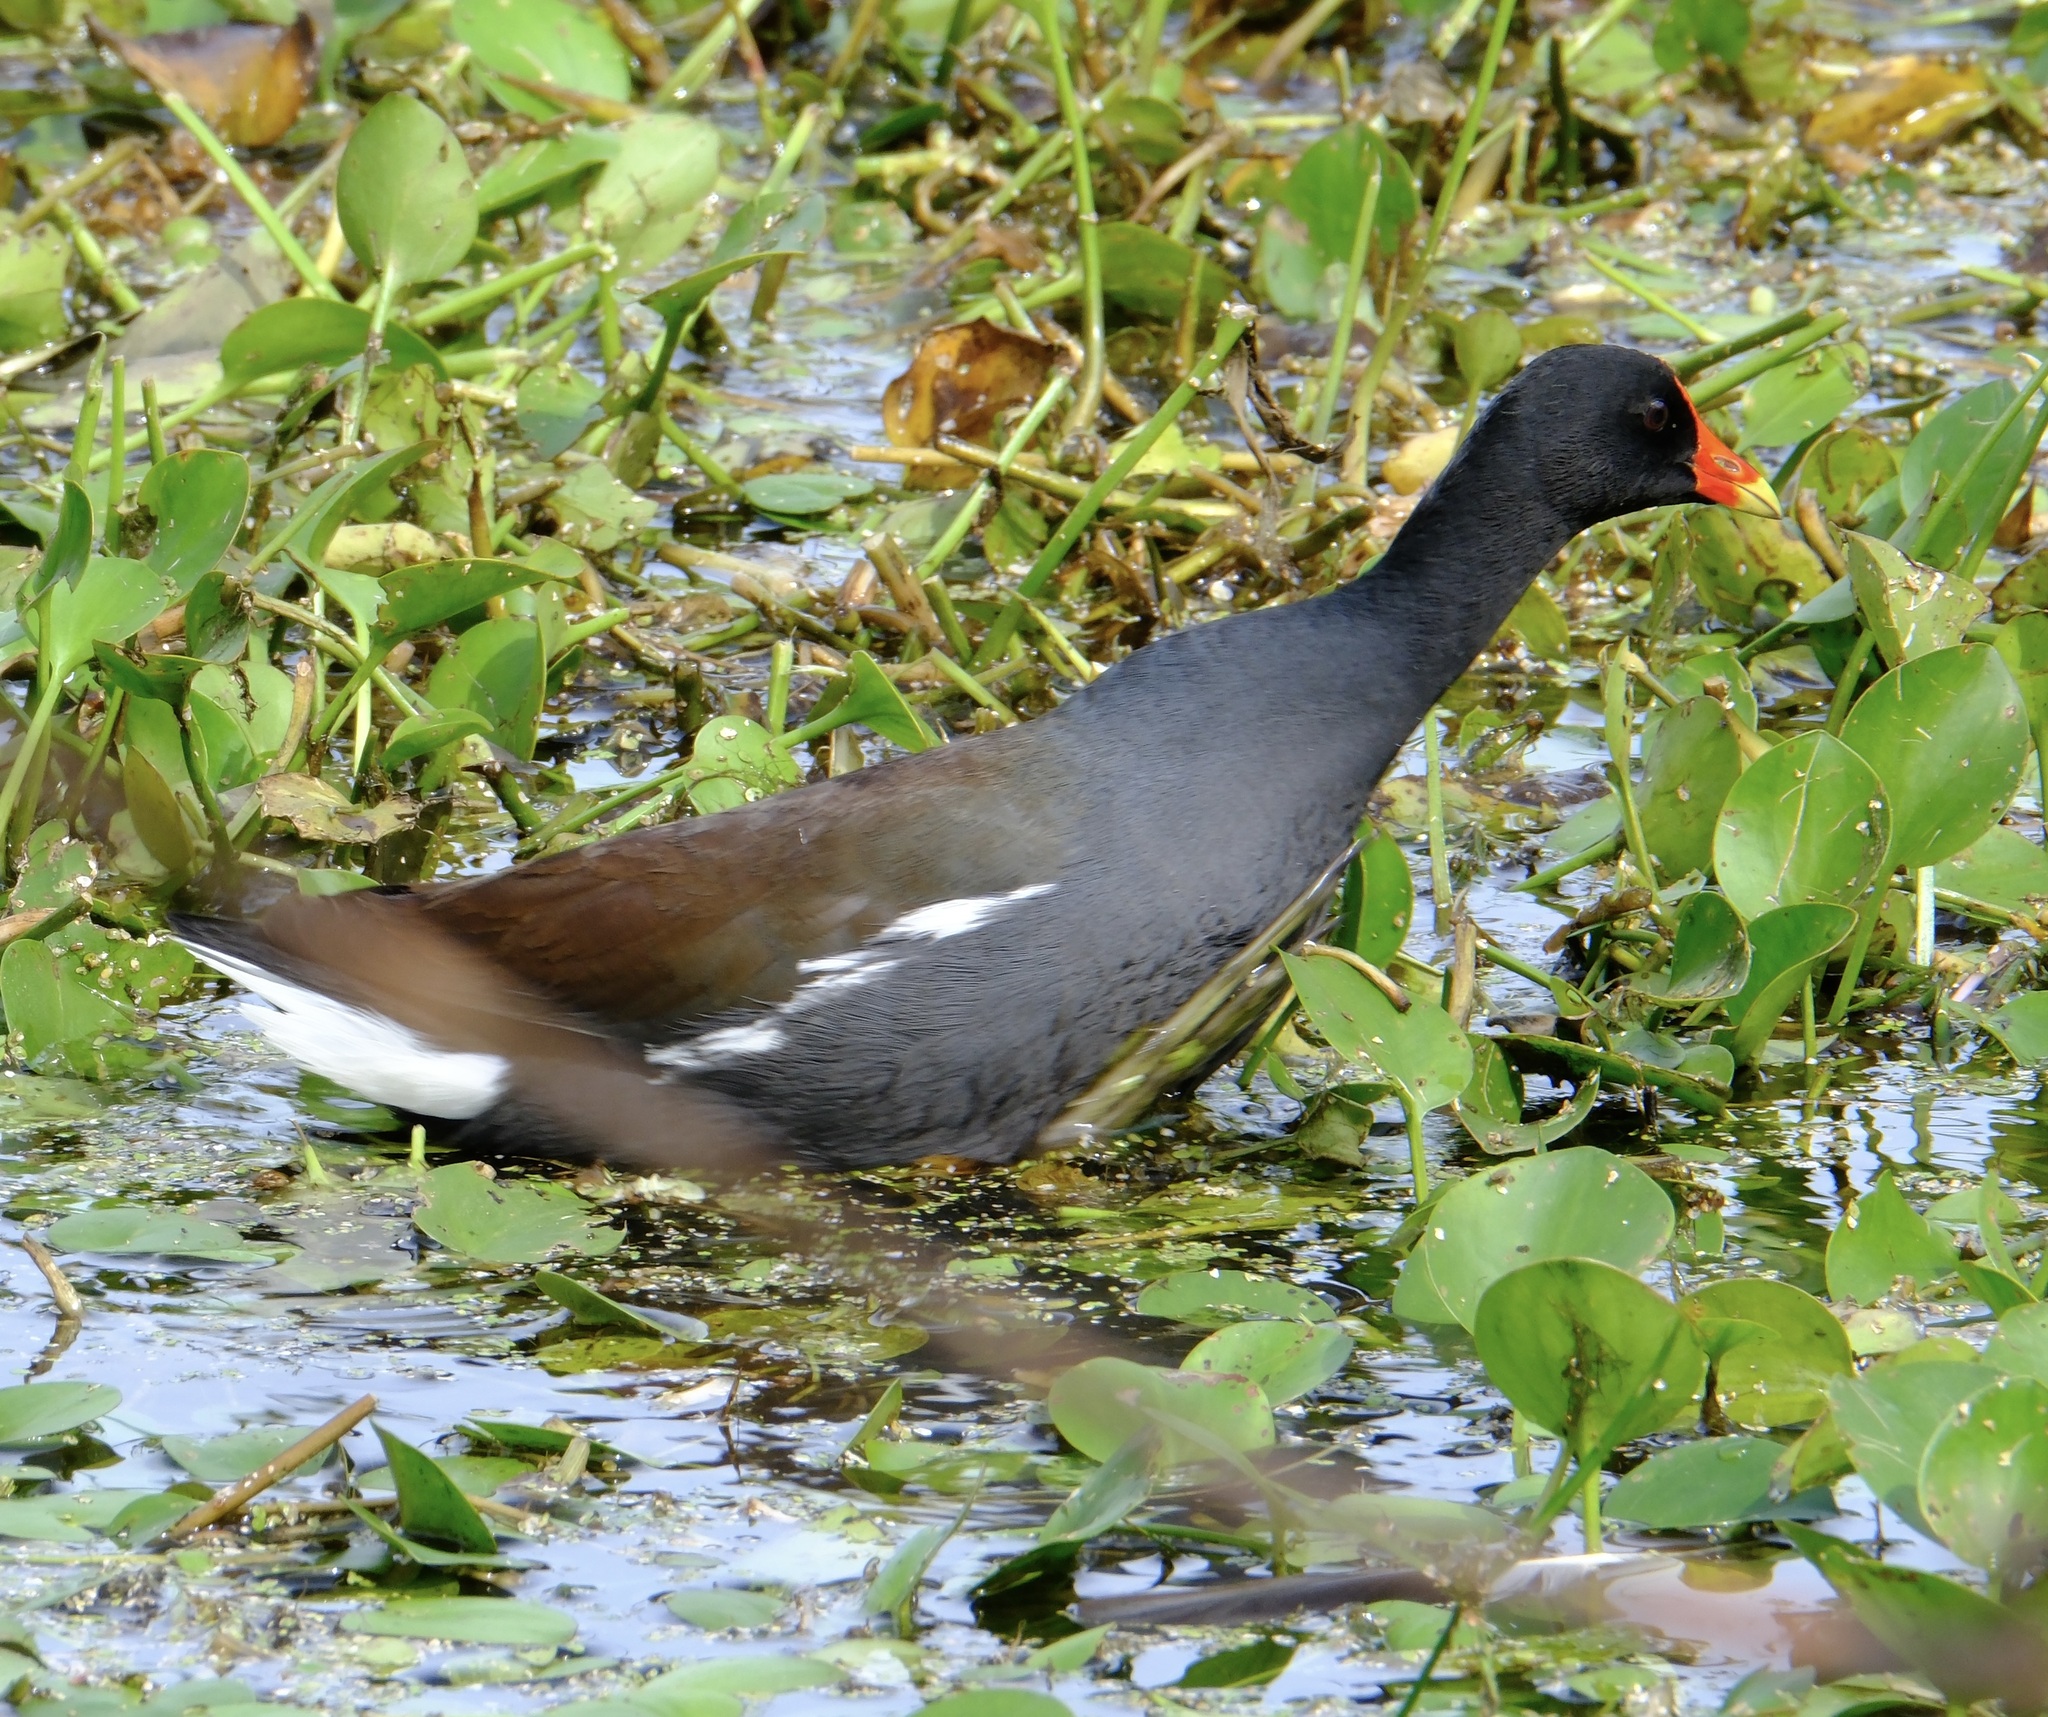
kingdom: Animalia
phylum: Chordata
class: Aves
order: Gruiformes
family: Rallidae
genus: Gallinula
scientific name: Gallinula chloropus
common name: Common moorhen
